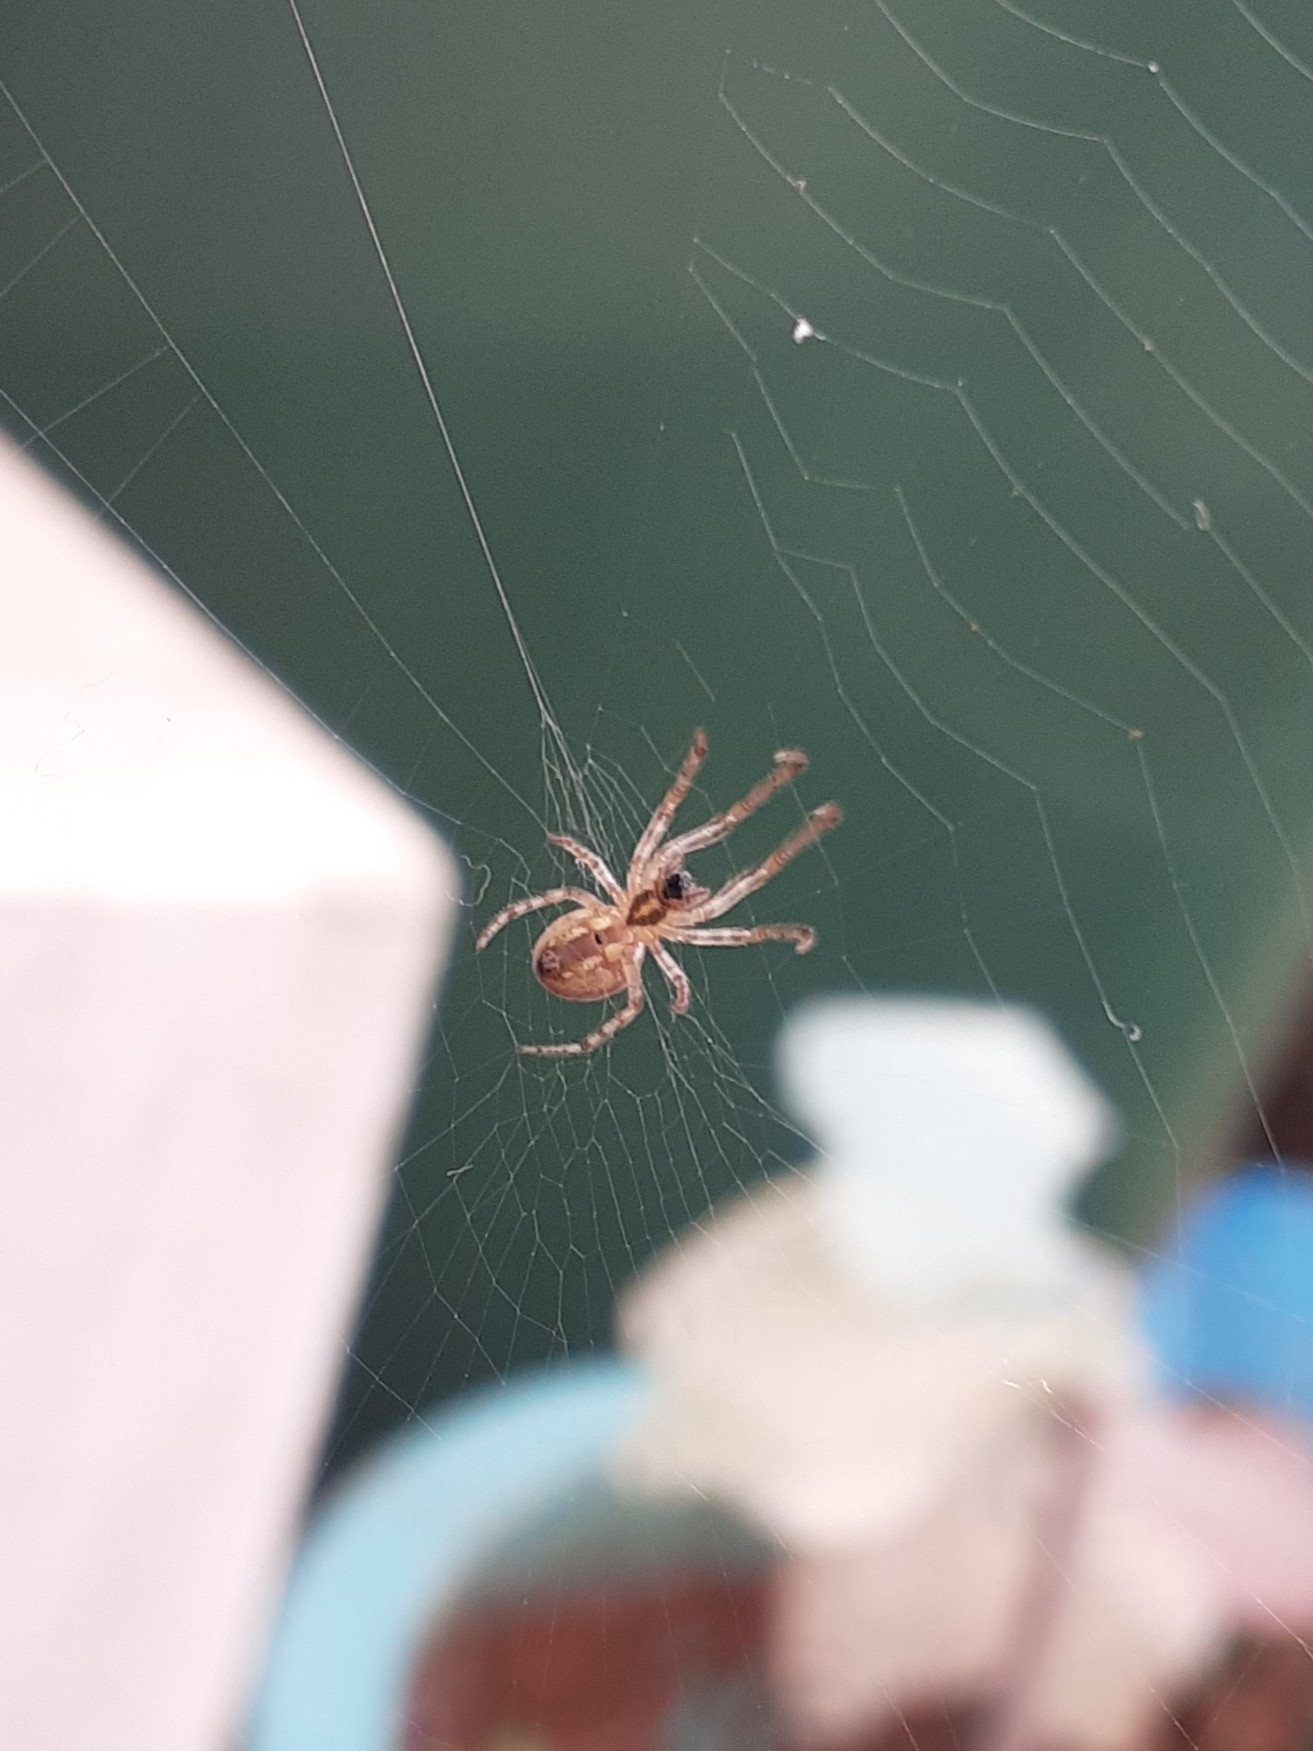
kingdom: Animalia
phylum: Arthropoda
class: Arachnida
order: Araneae
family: Araneidae
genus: Zygiella
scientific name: Zygiella x-notata
